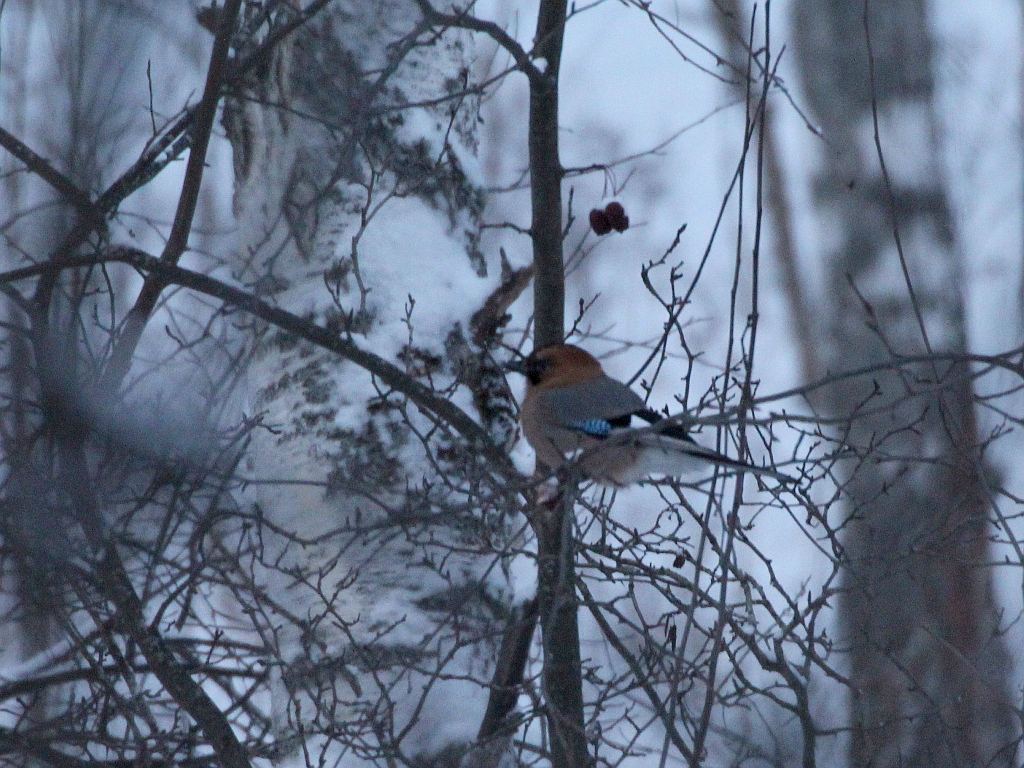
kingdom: Animalia
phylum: Chordata
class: Aves
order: Passeriformes
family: Corvidae
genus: Garrulus
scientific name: Garrulus glandarius
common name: Eurasian jay
